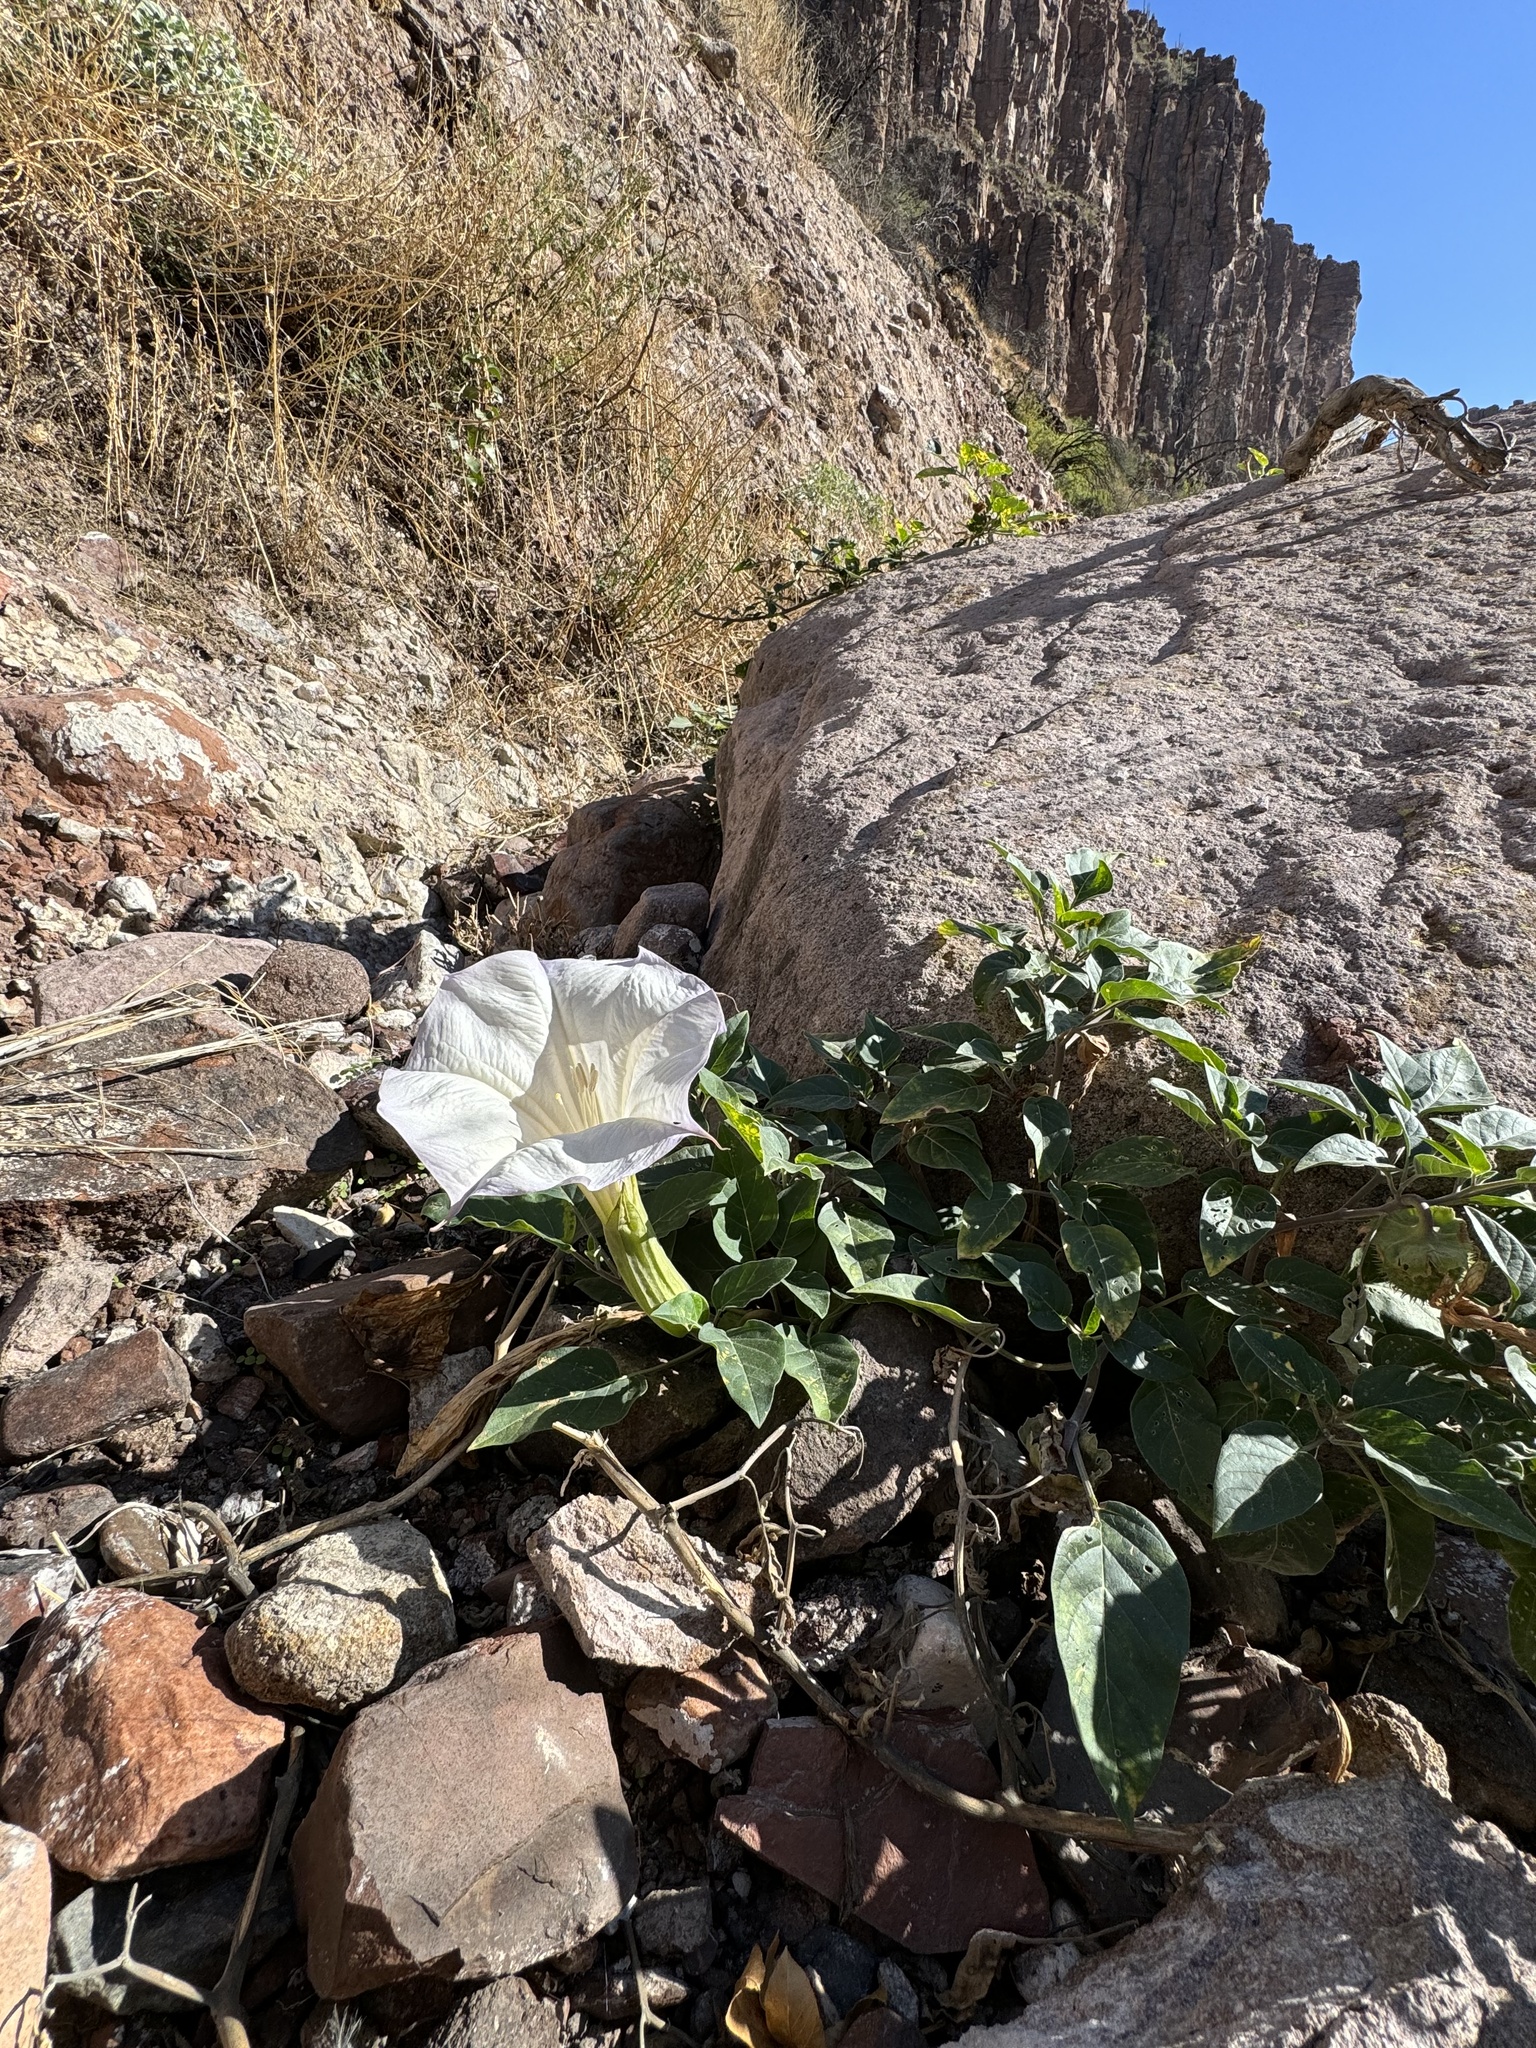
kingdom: Plantae
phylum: Tracheophyta
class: Magnoliopsida
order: Solanales
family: Solanaceae
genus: Datura
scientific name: Datura wrightii
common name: Sacred thorn-apple
